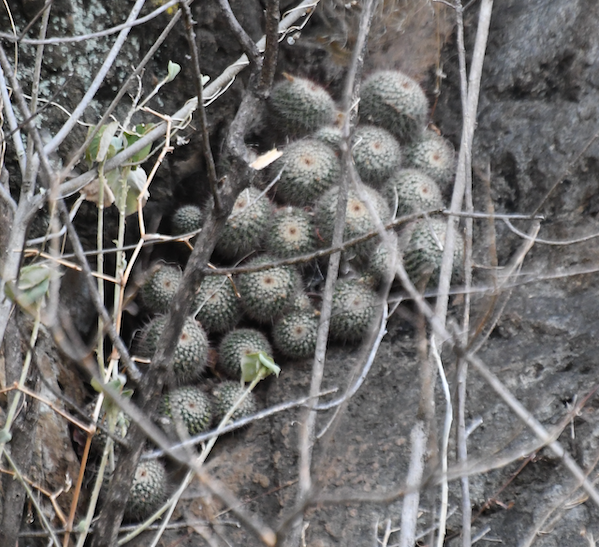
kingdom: Plantae
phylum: Tracheophyta
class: Magnoliopsida
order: Caryophyllales
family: Cactaceae
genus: Mammillaria
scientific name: Mammillaria voburnensis
